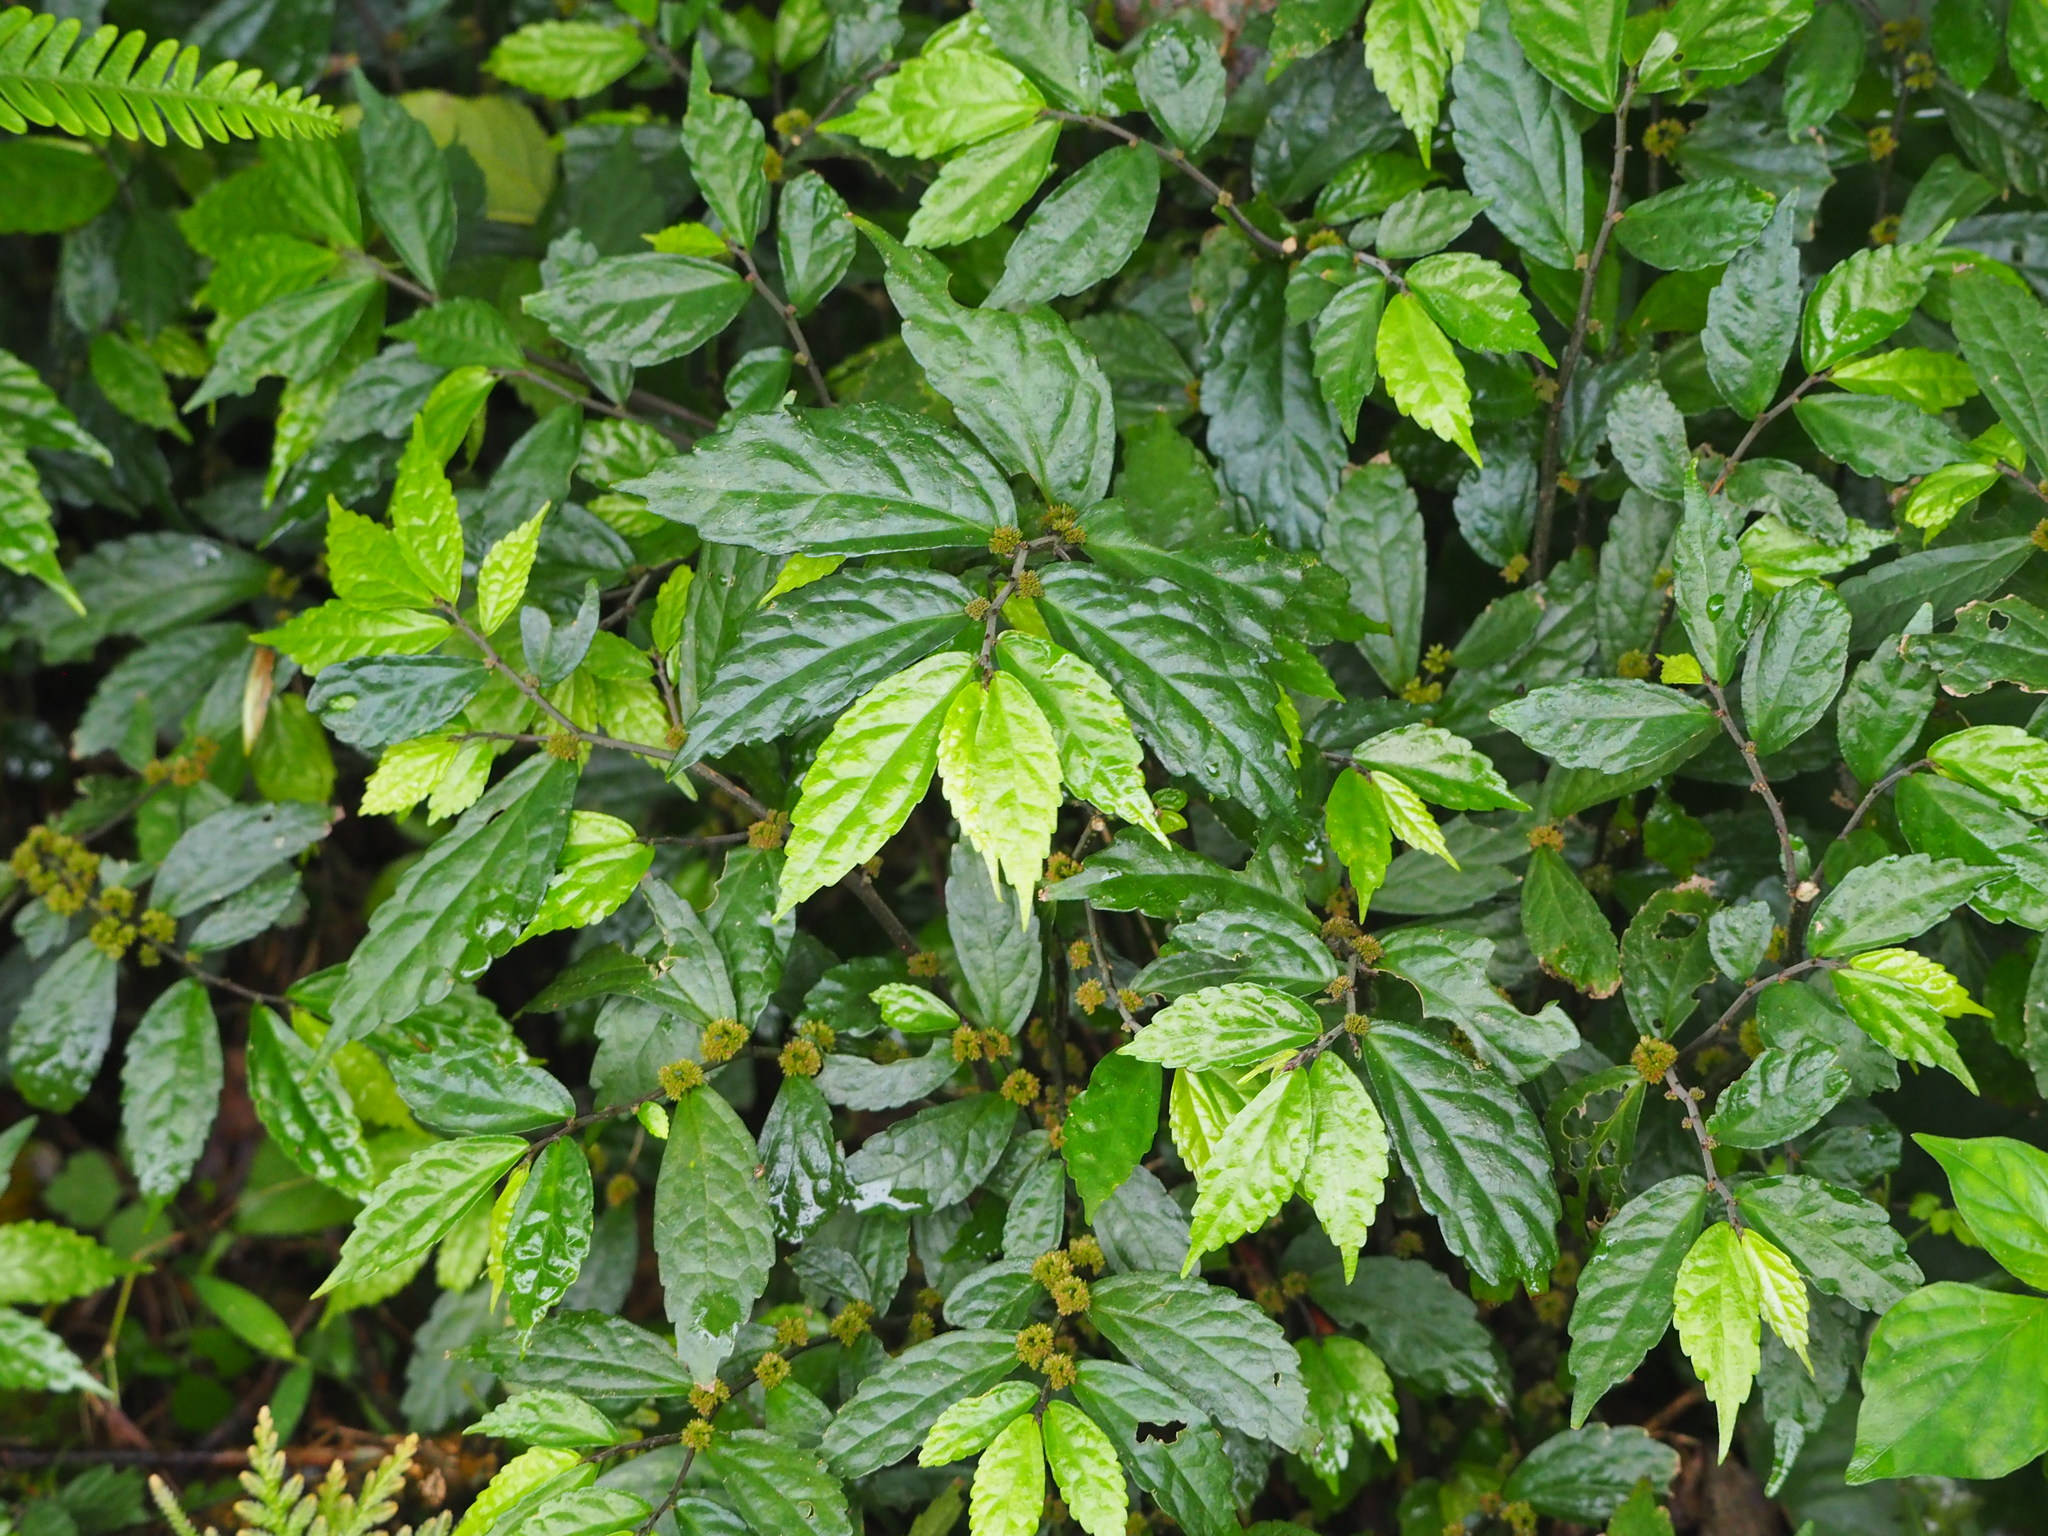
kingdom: Plantae
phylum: Tracheophyta
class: Magnoliopsida
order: Rosales
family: Urticaceae
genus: Elatostema
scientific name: Elatostema scabrum
